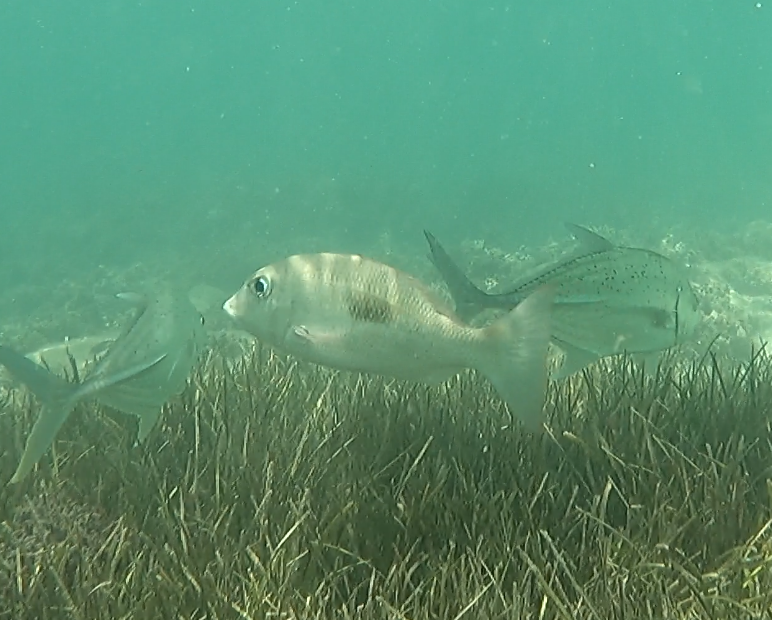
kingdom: Animalia
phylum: Chordata
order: Perciformes
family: Lethrinidae
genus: Lethrinus
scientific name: Lethrinus harak
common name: Blackspot emperor
